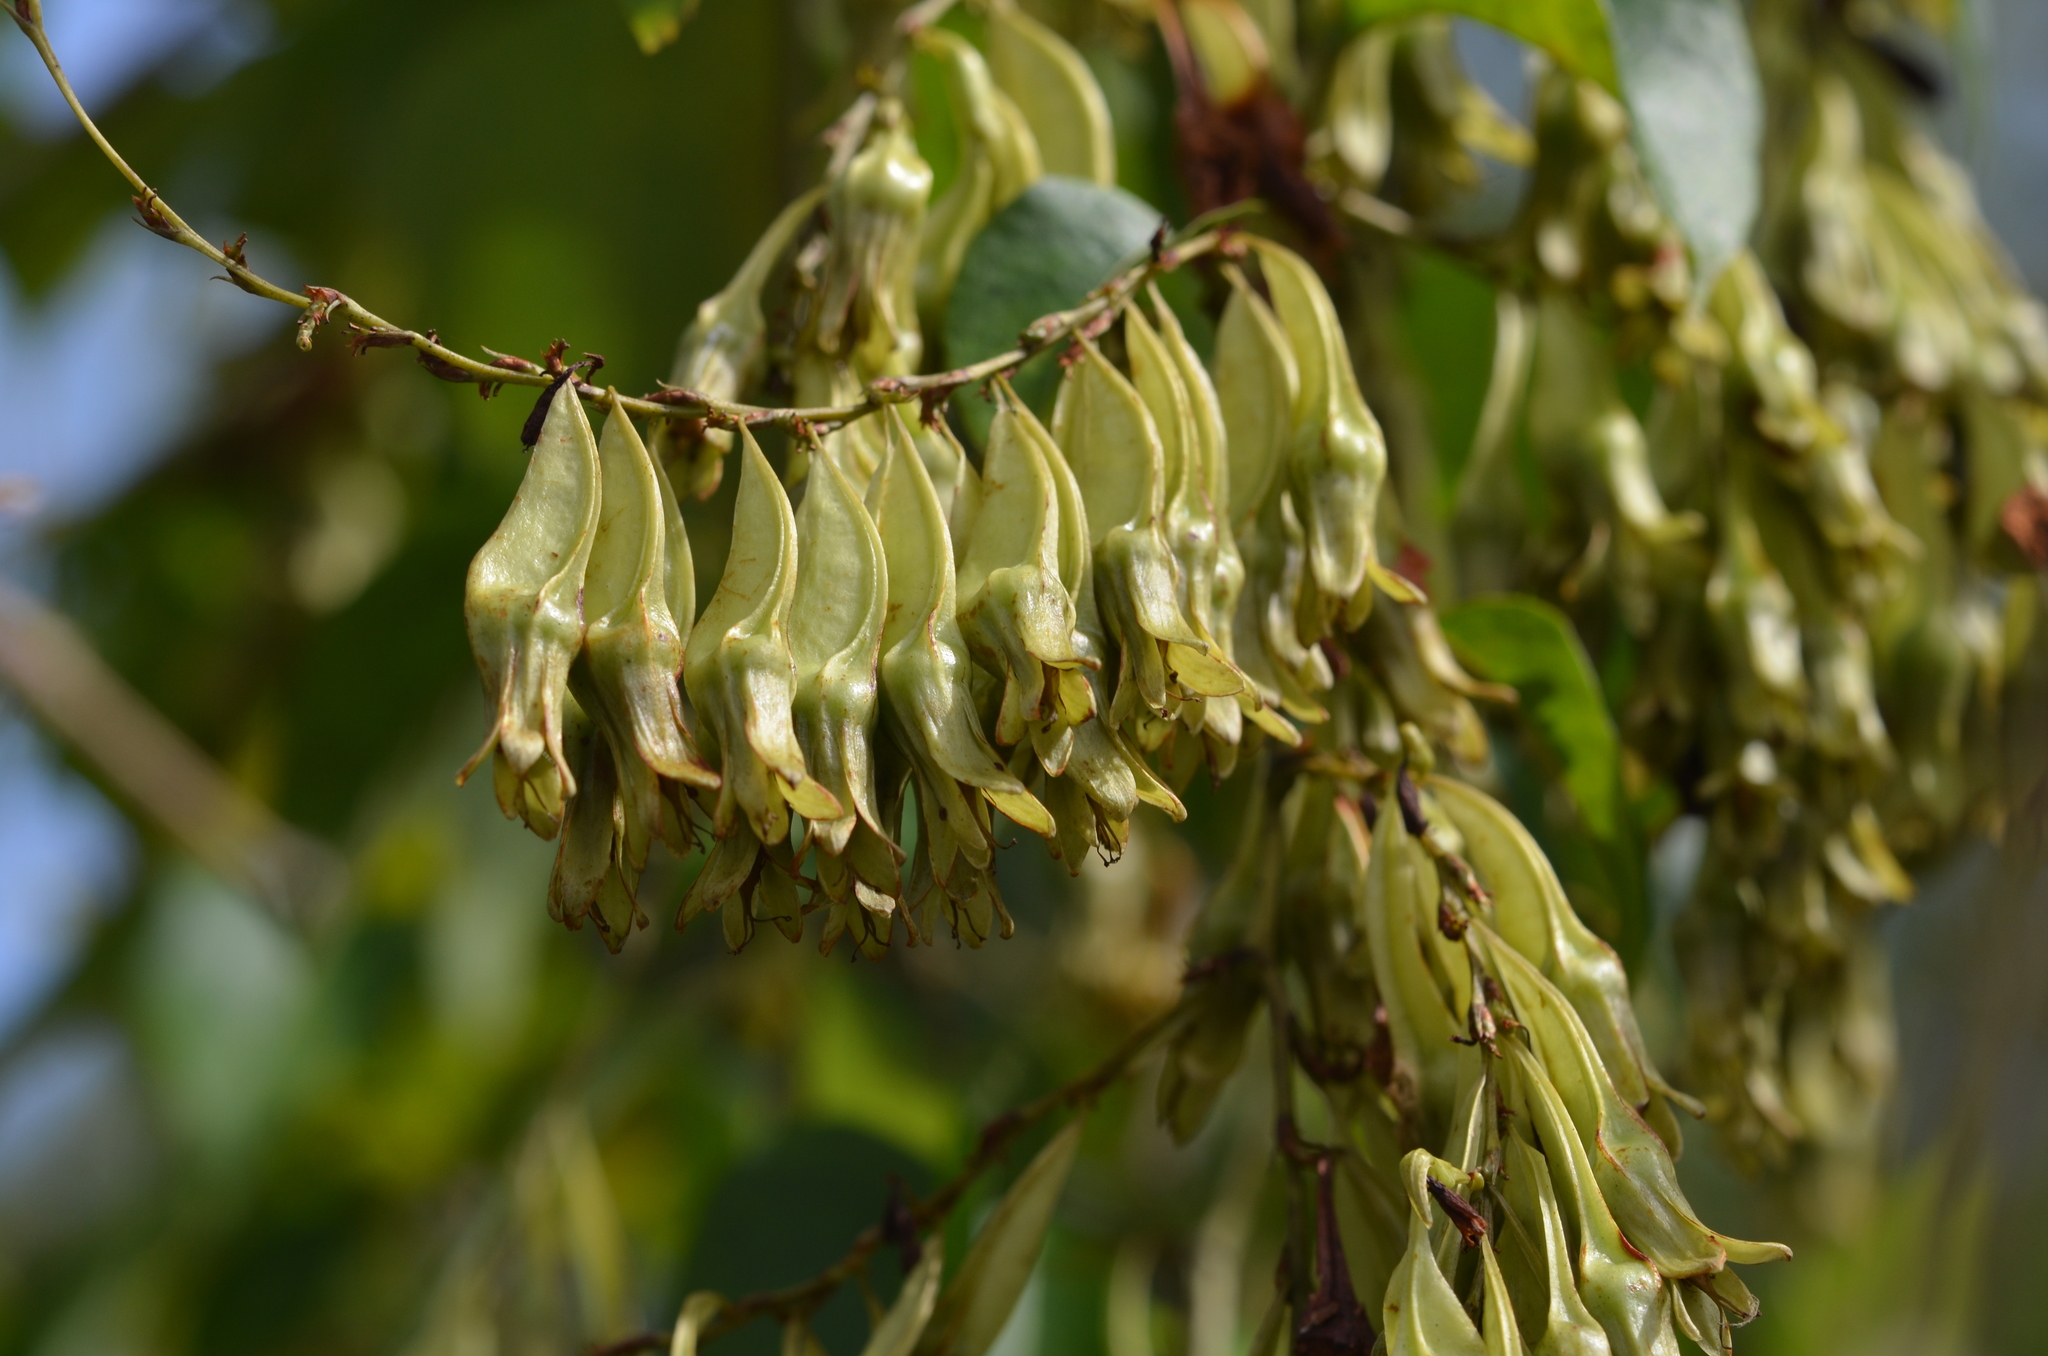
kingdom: Plantae
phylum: Tracheophyta
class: Magnoliopsida
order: Caryophyllales
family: Polygonaceae
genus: Brunnichia
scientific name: Brunnichia ovata
